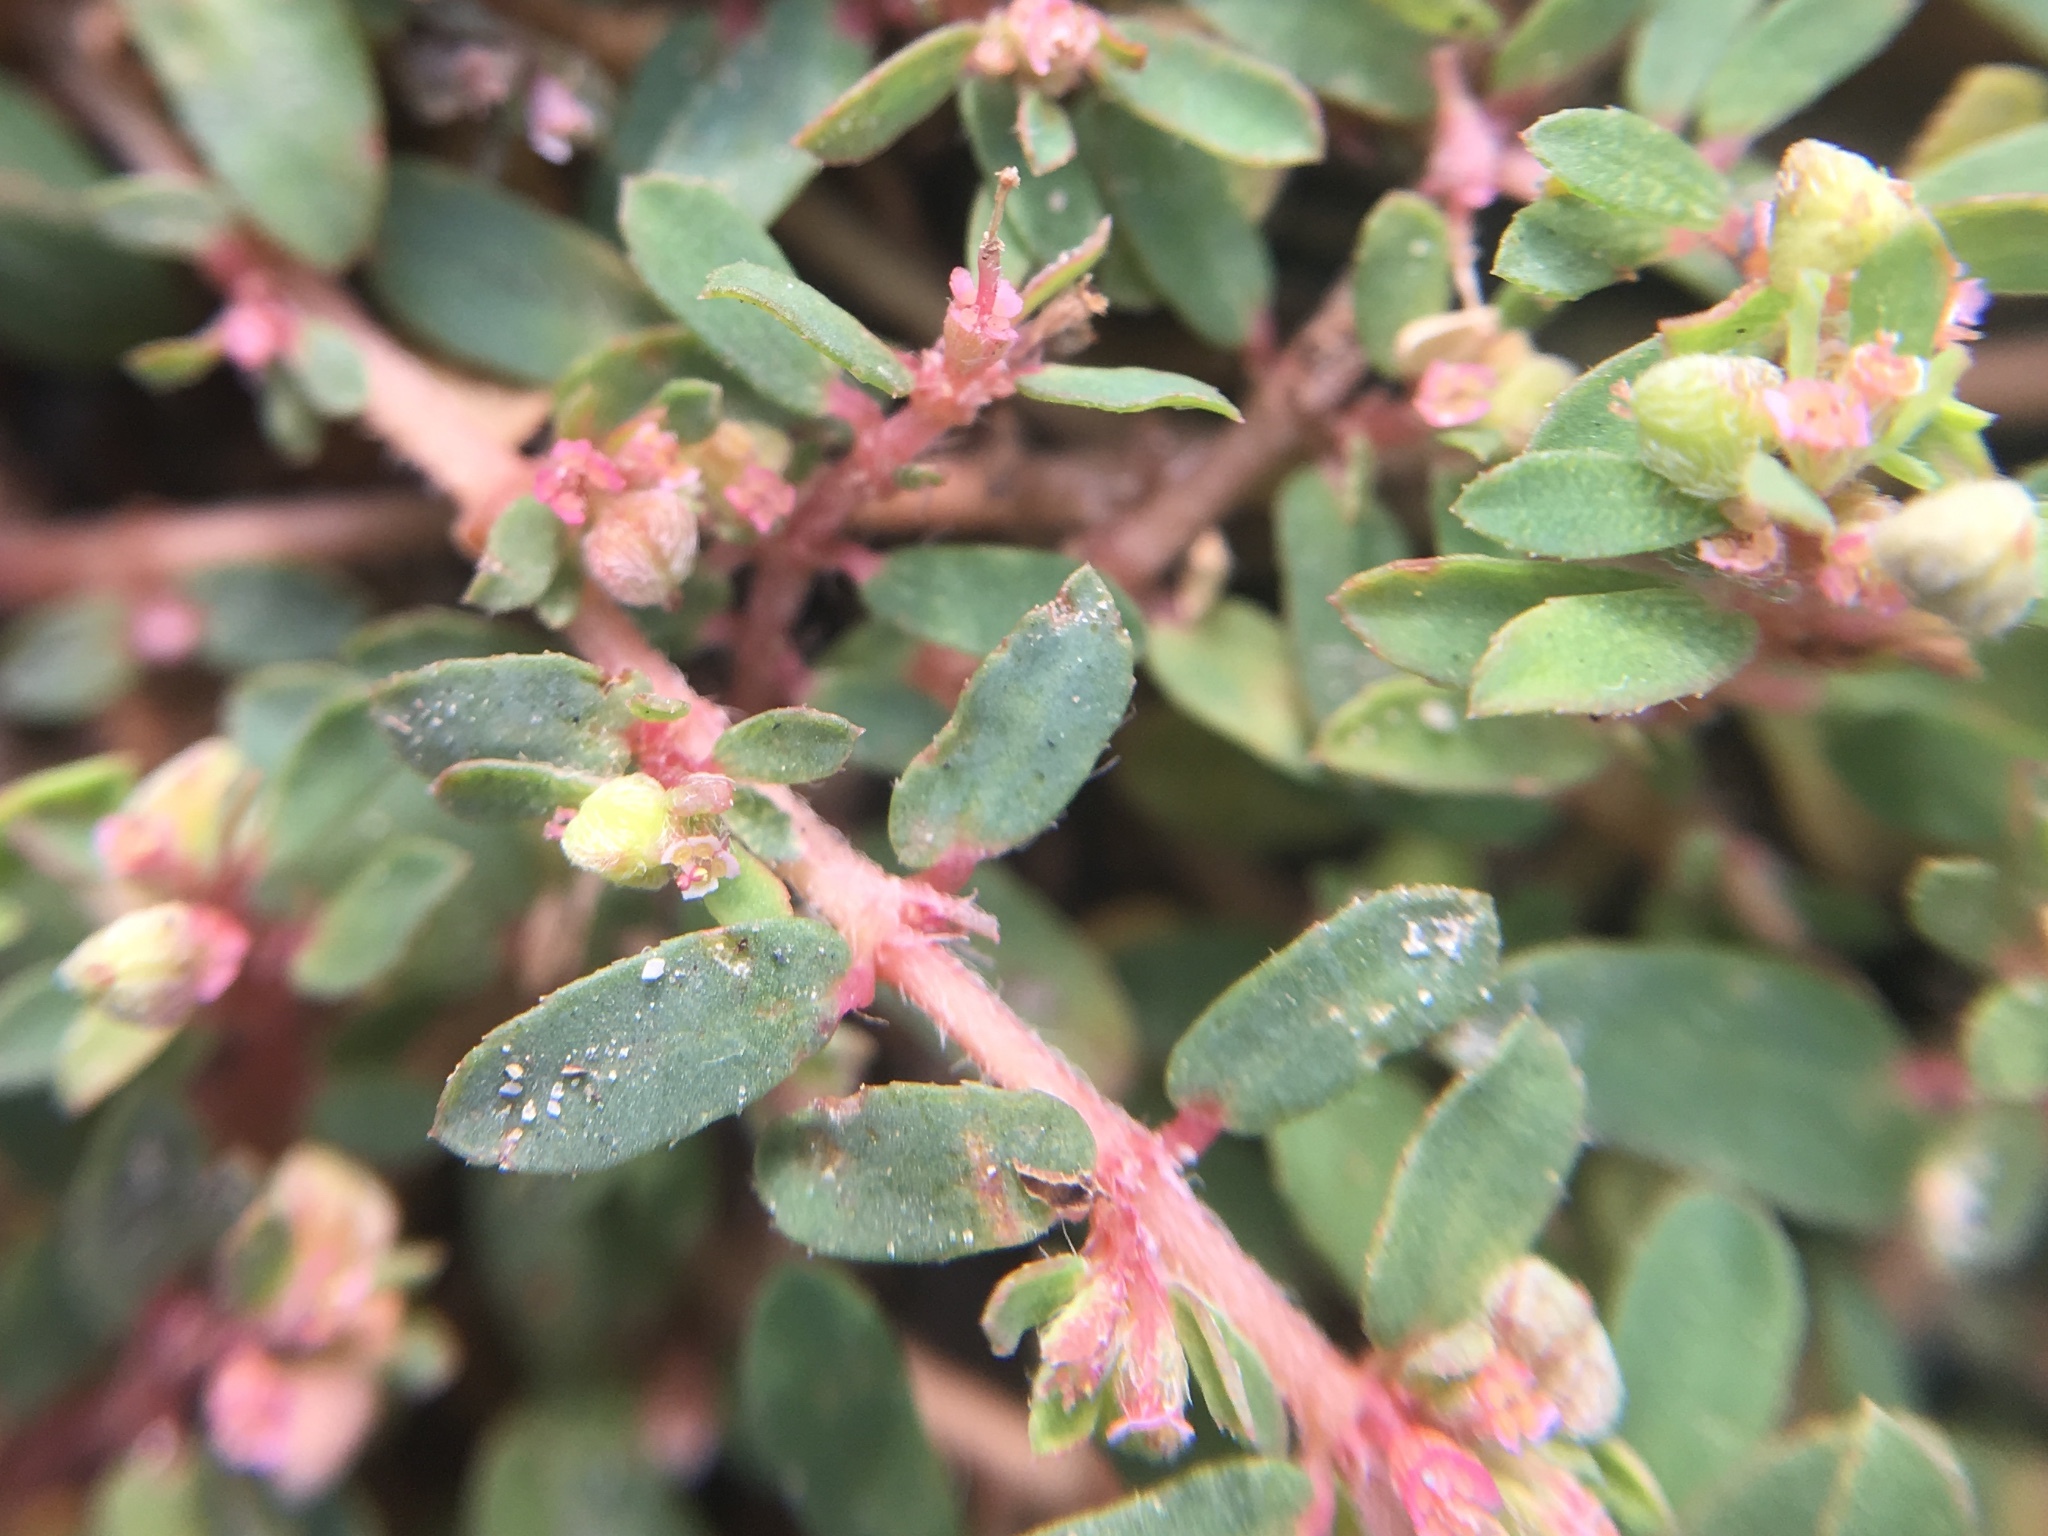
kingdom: Plantae
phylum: Tracheophyta
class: Magnoliopsida
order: Malpighiales
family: Euphorbiaceae
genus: Euphorbia
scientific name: Euphorbia maculata
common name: Spotted spurge
